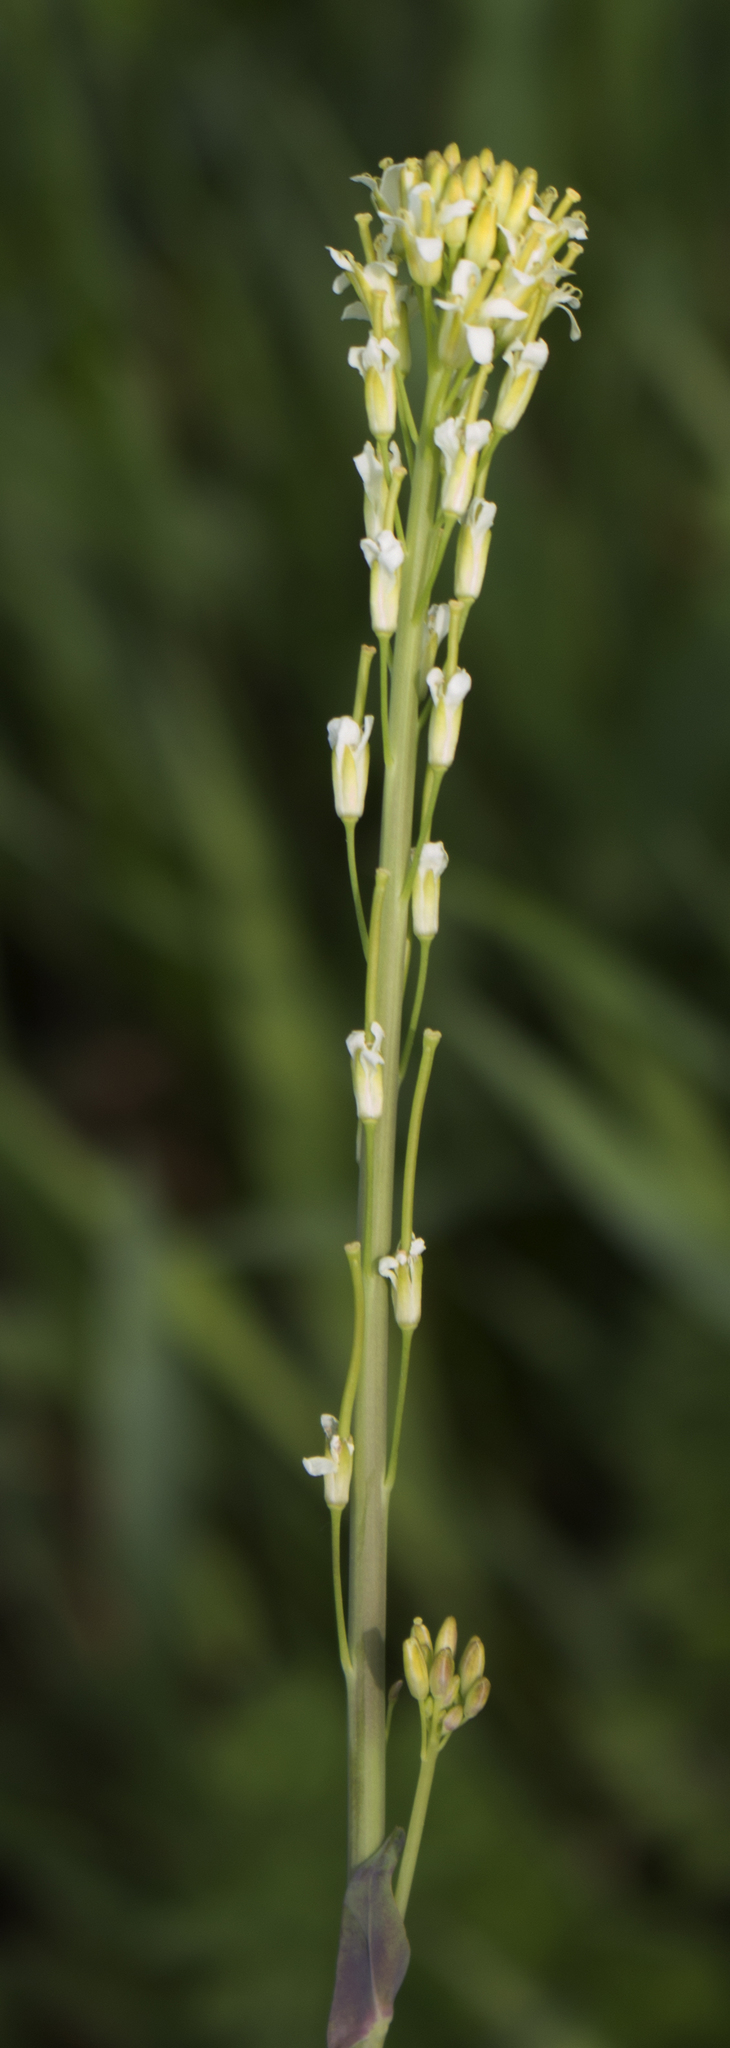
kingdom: Plantae
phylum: Tracheophyta
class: Magnoliopsida
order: Brassicales
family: Brassicaceae
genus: Turritis
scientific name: Turritis glabra
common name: Tower rockcress
